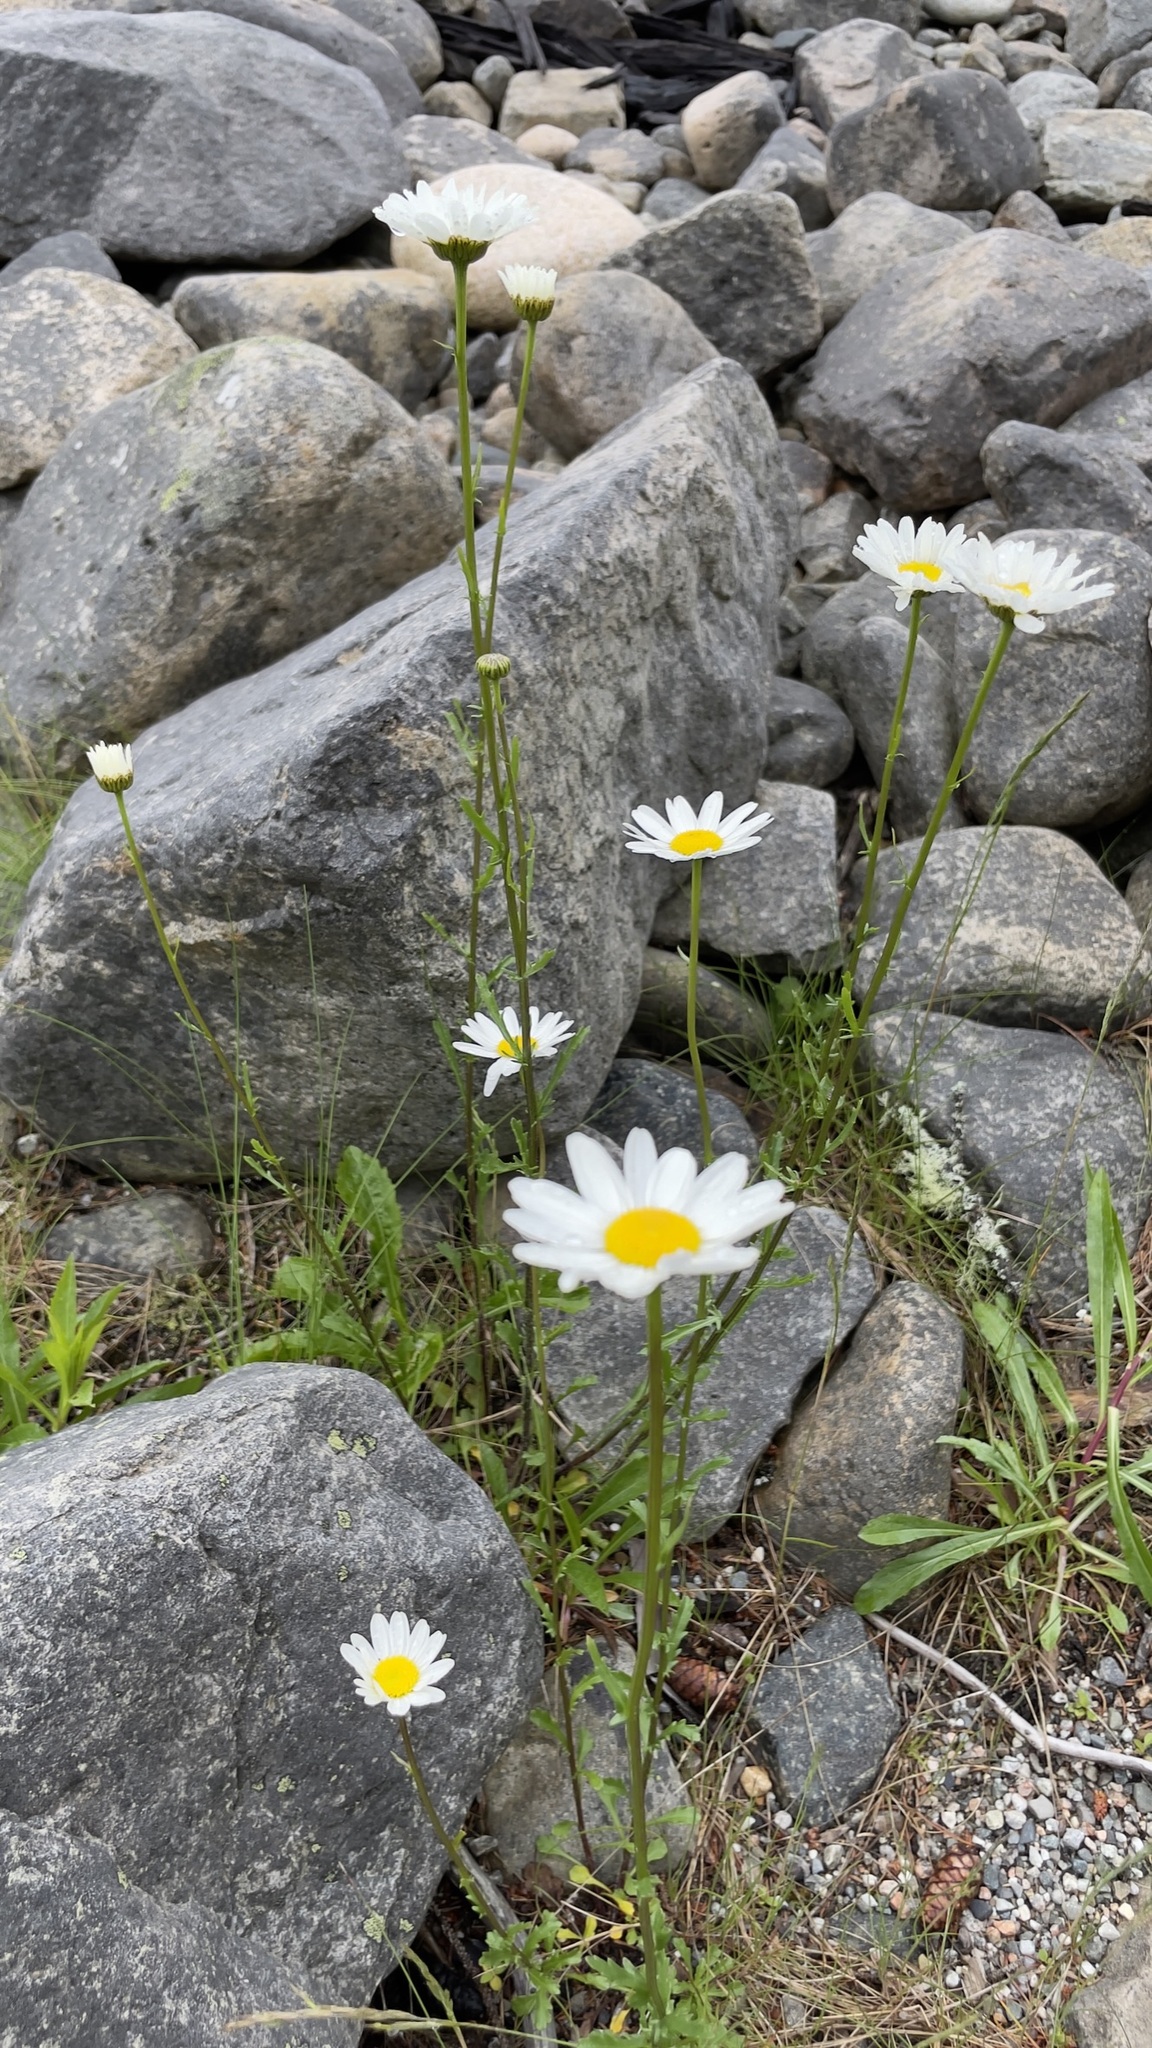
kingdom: Plantae
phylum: Tracheophyta
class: Magnoliopsida
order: Asterales
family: Asteraceae
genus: Leucanthemum
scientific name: Leucanthemum vulgare
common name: Oxeye daisy
